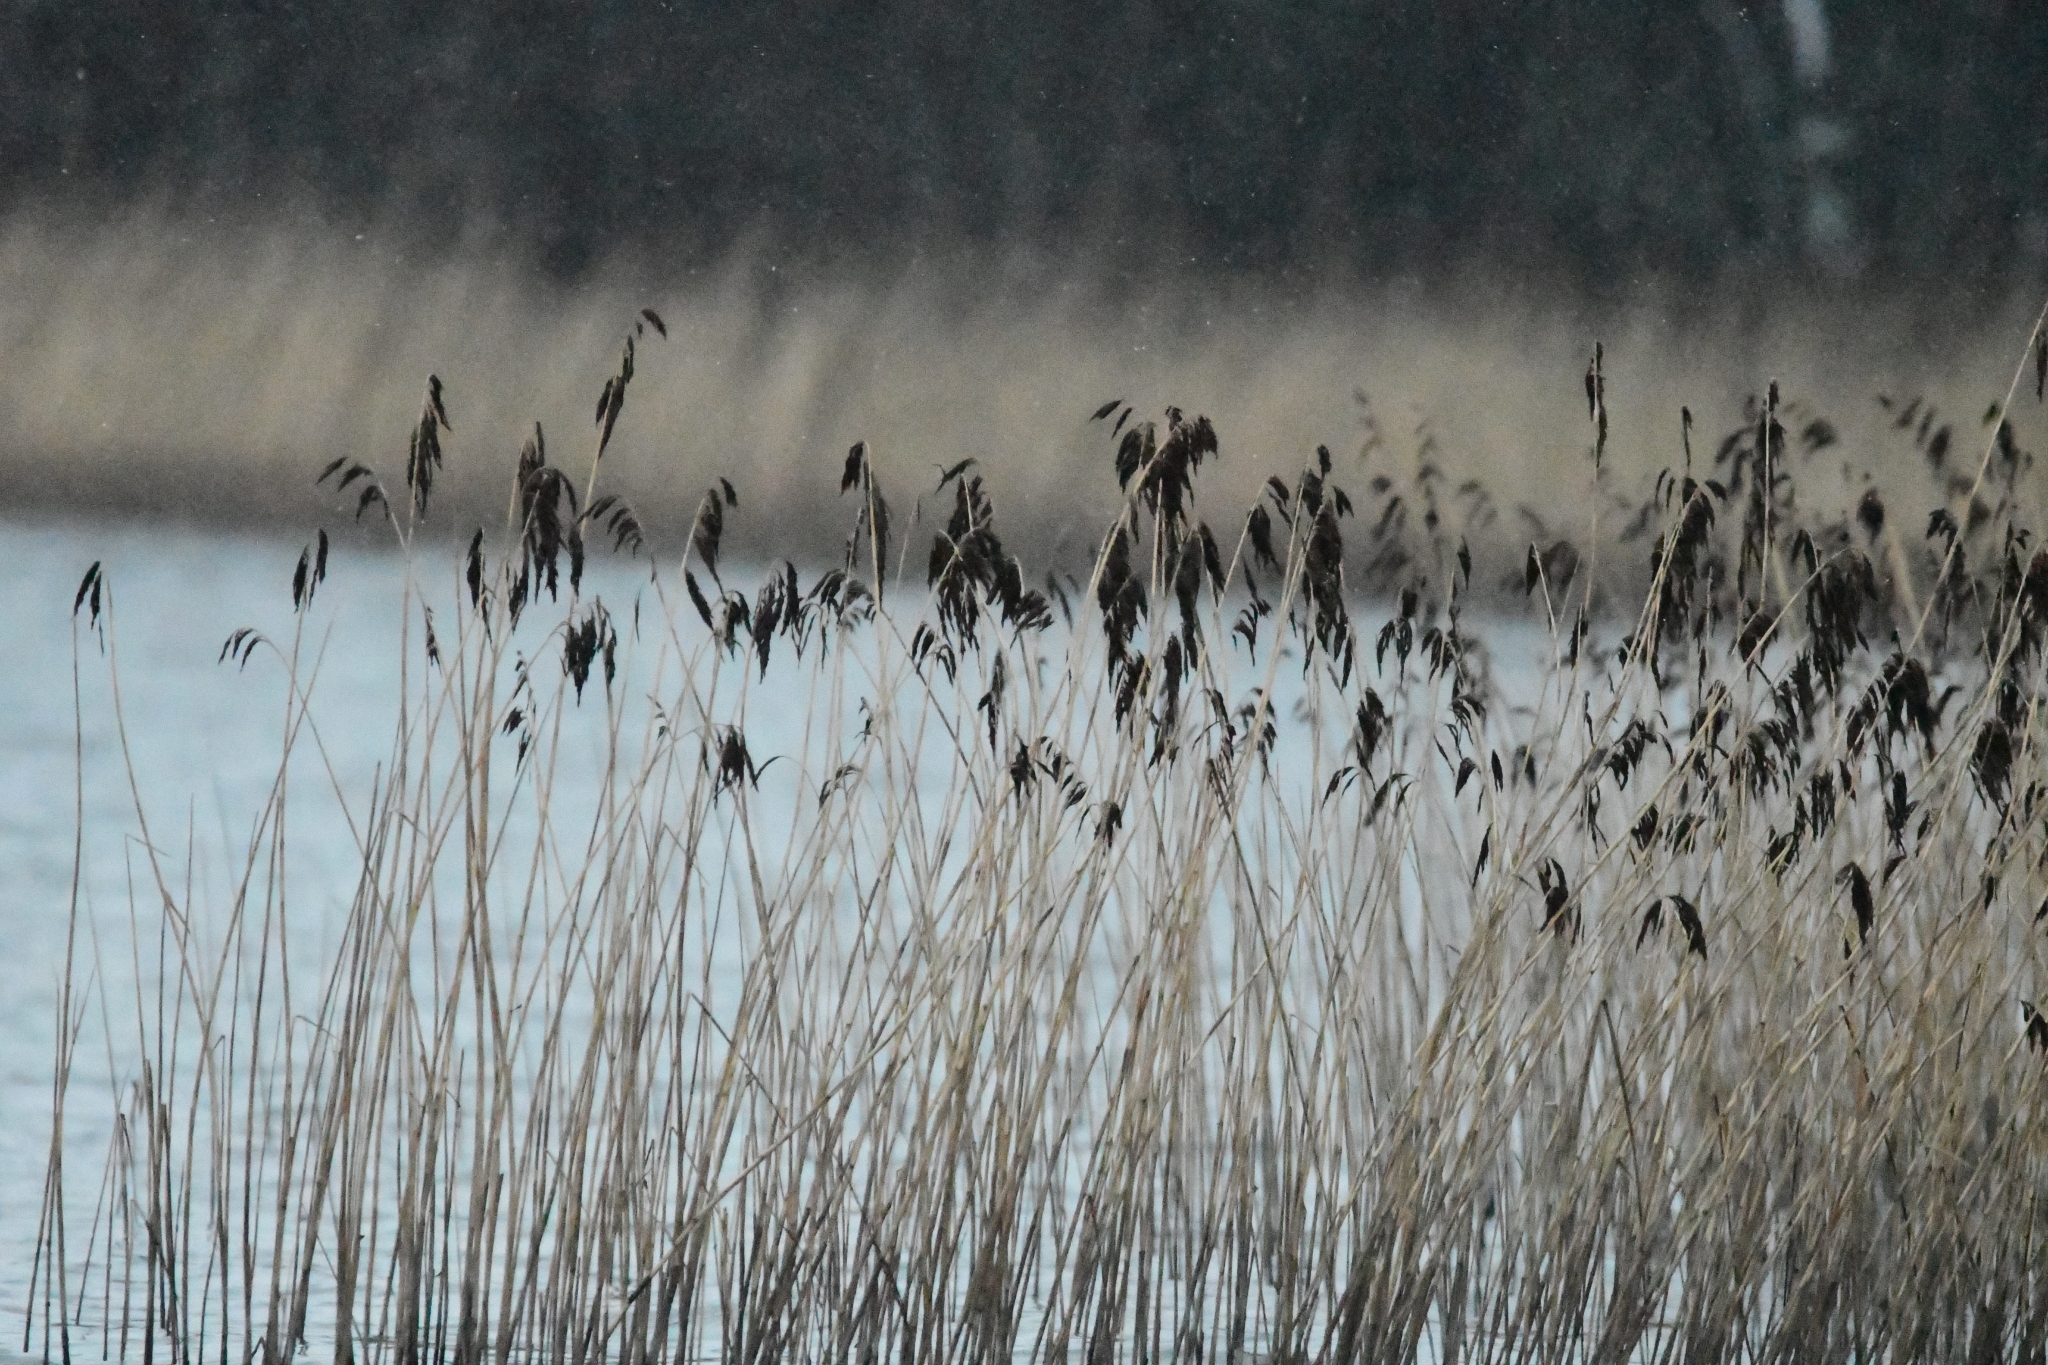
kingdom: Plantae
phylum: Tracheophyta
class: Liliopsida
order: Poales
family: Poaceae
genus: Phragmites
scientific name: Phragmites australis
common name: Common reed
